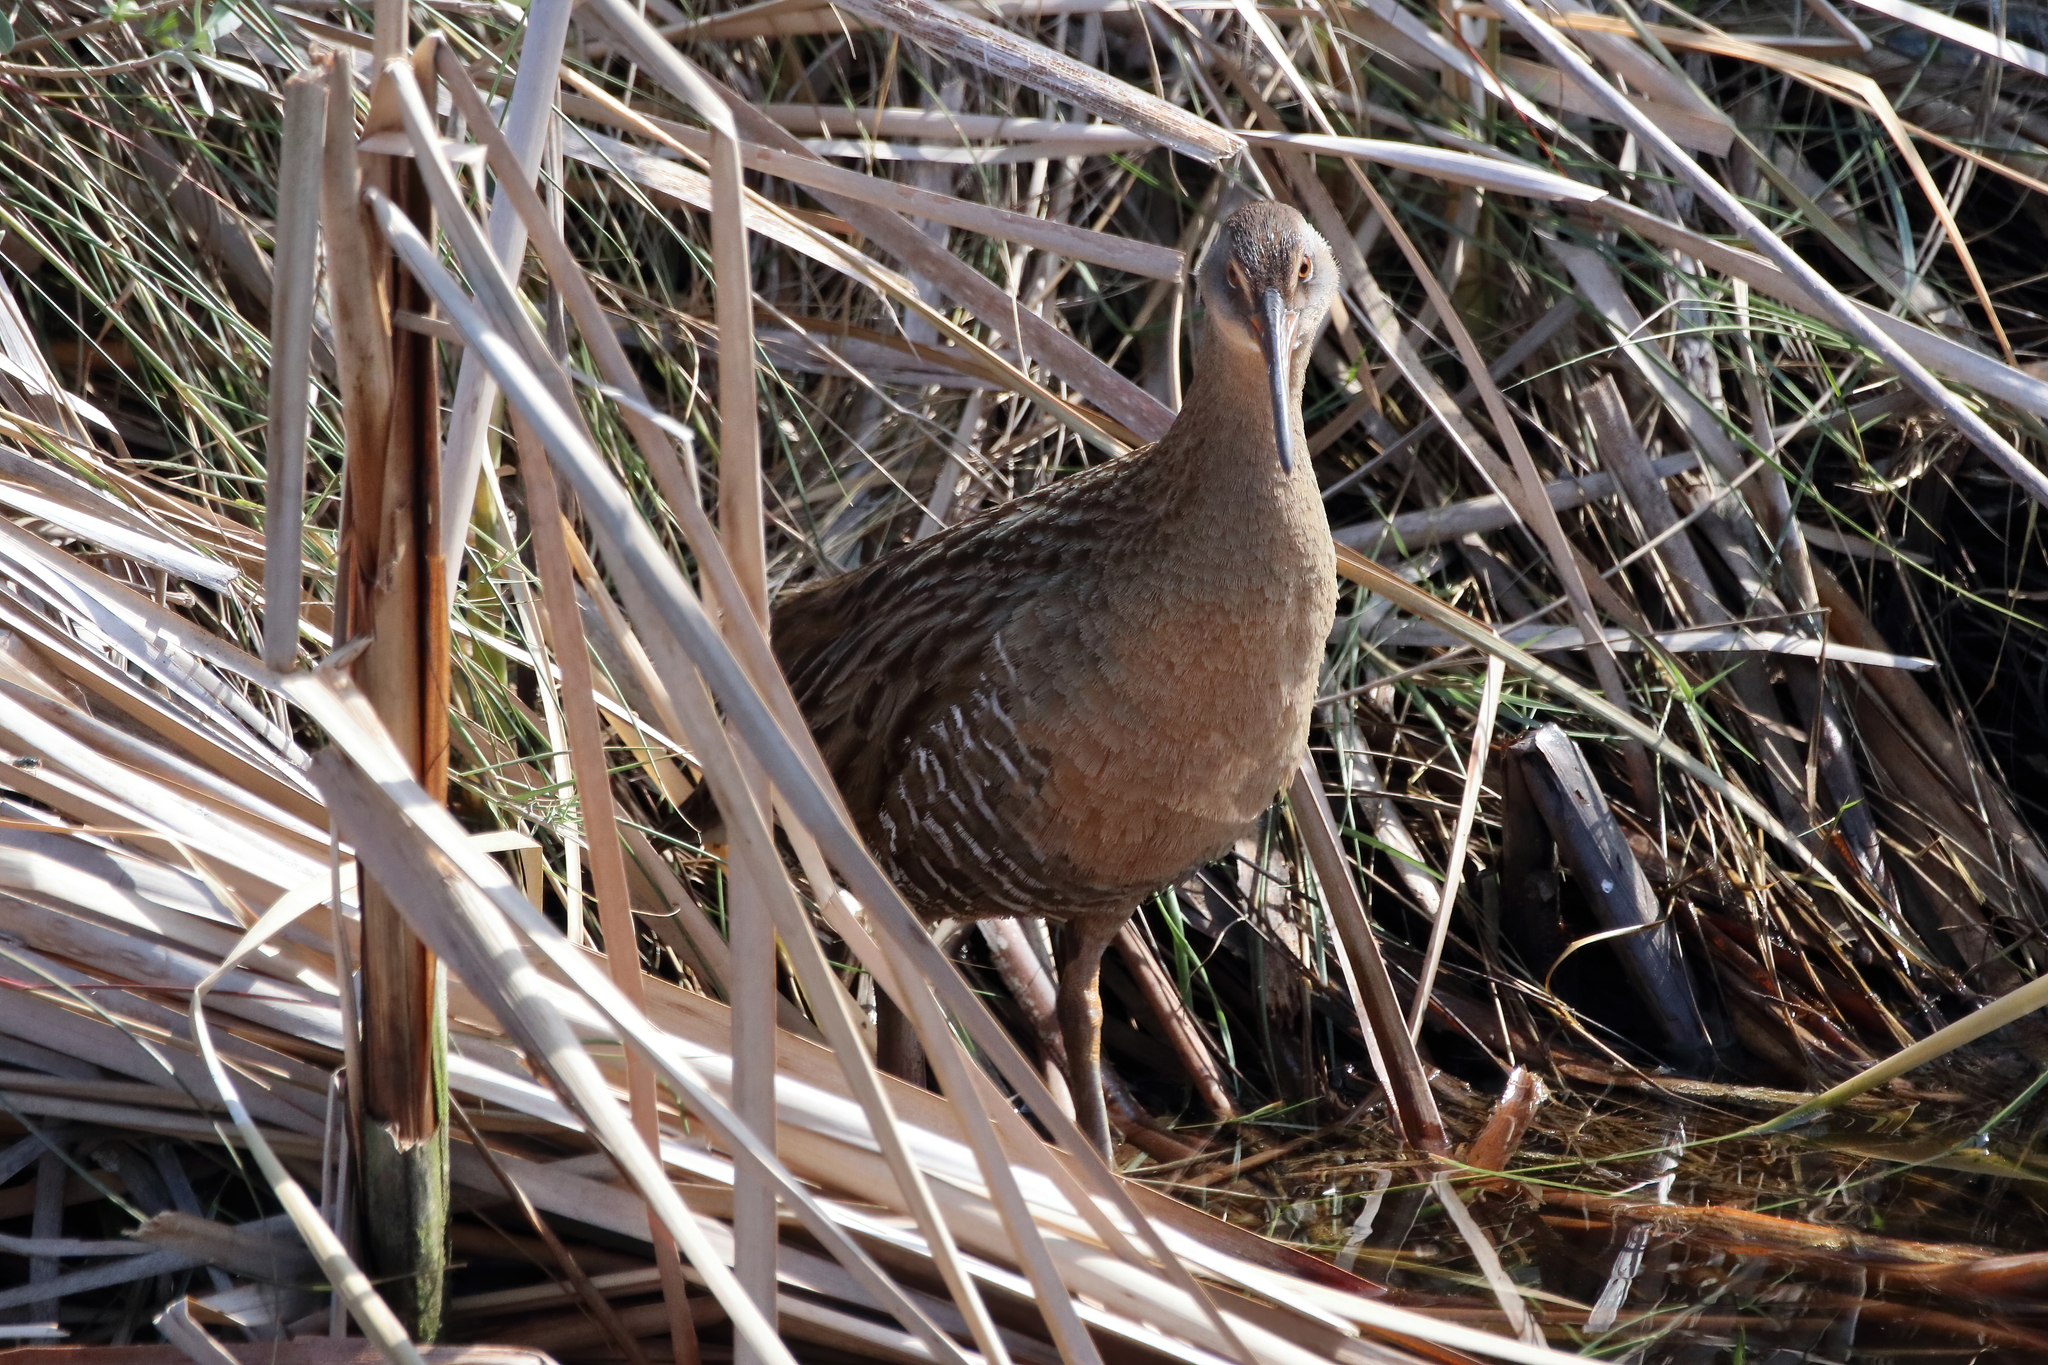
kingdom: Animalia
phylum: Chordata
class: Aves
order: Gruiformes
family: Rallidae
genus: Rallus
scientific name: Rallus crepitans
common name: Clapper rail
